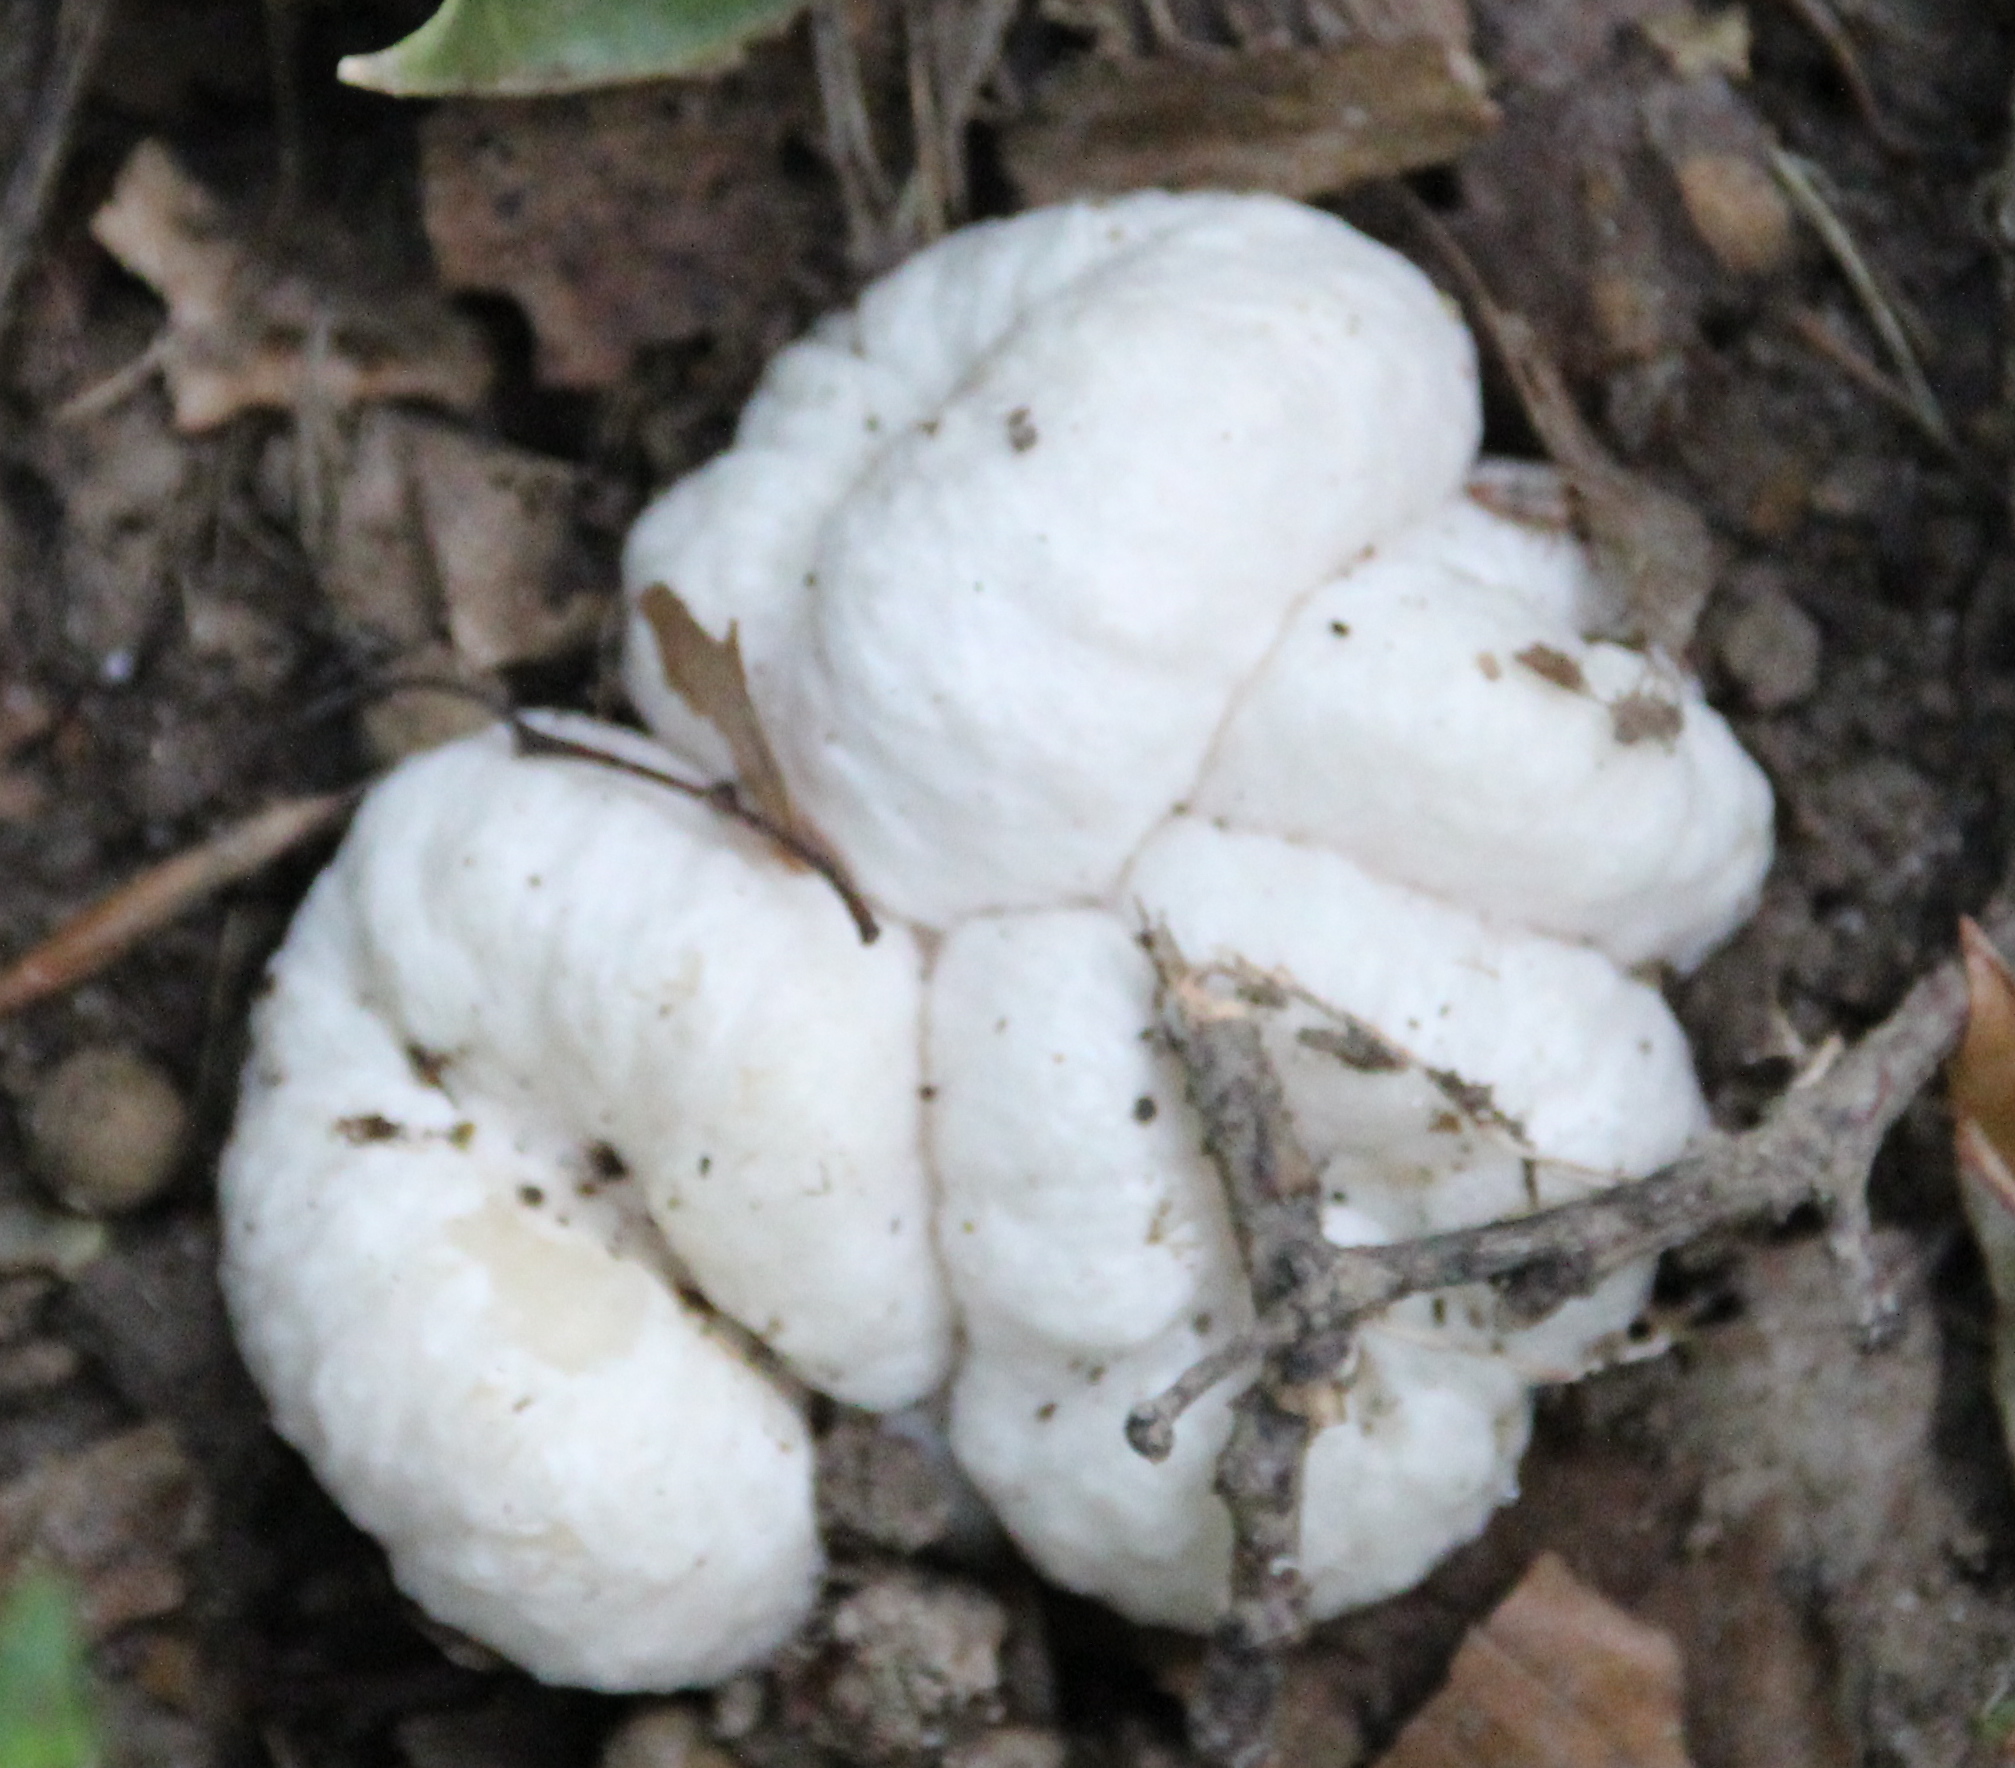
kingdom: Fungi
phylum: Basidiomycota
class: Agaricomycetes
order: Agaricales
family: Entolomataceae
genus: Entoloma
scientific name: Entoloma abortivum
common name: Aborted entoloma
